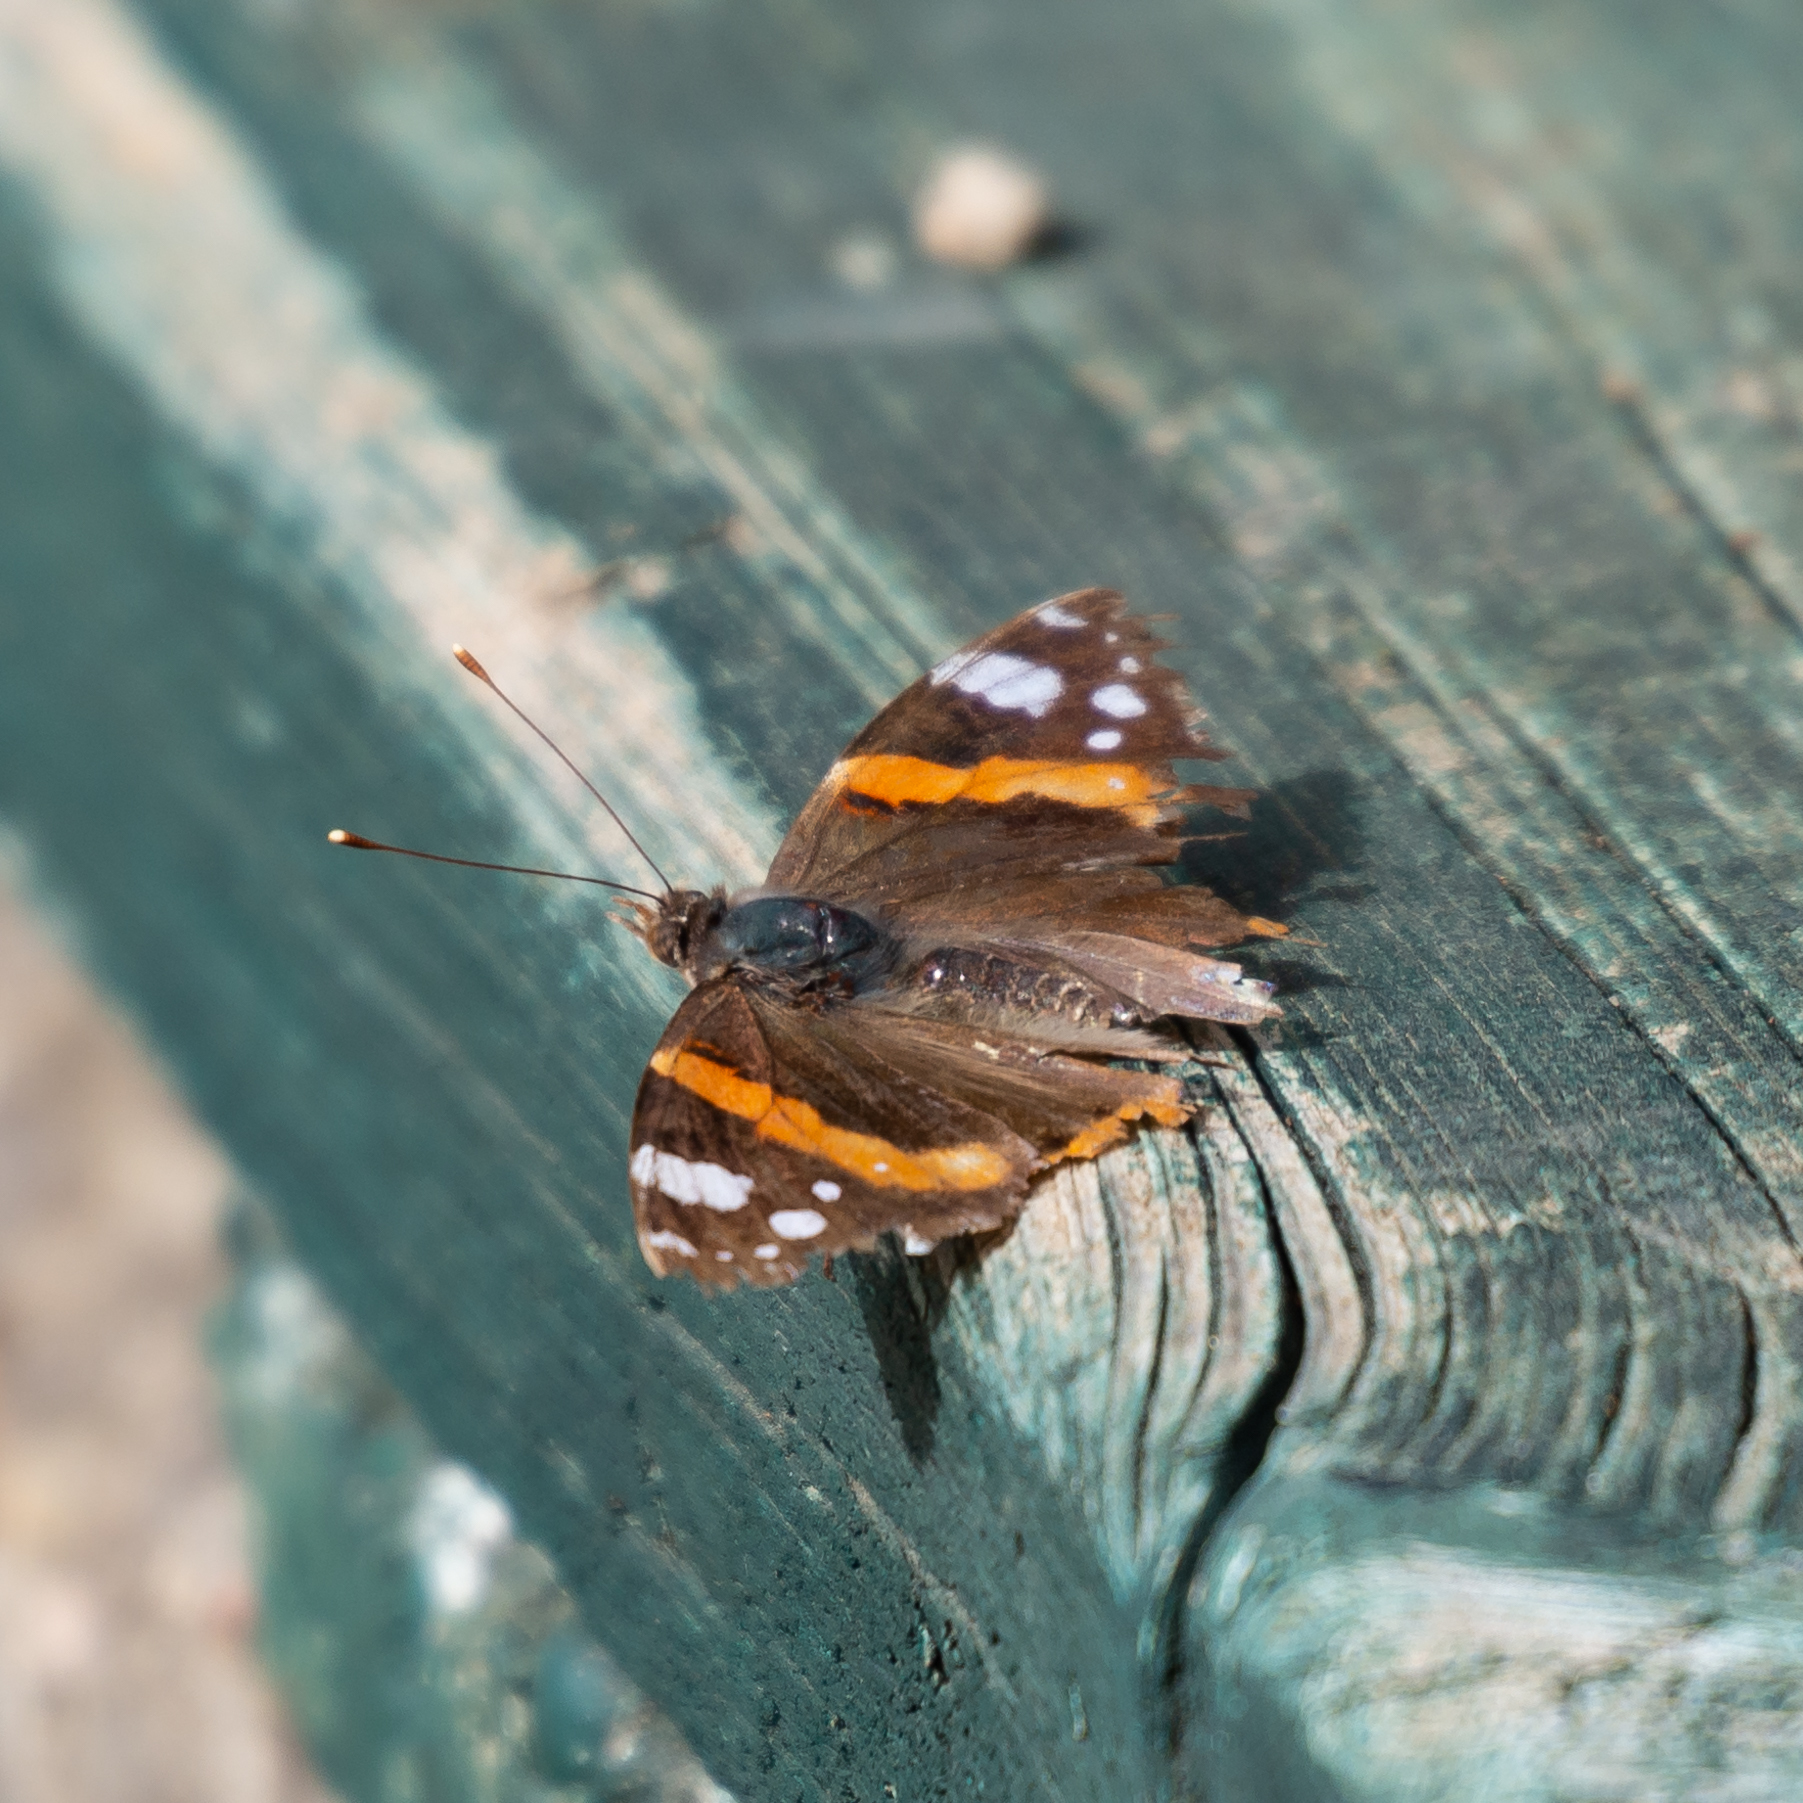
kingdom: Animalia
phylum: Arthropoda
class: Insecta
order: Lepidoptera
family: Nymphalidae
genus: Vanessa
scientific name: Vanessa atalanta
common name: Red admiral
